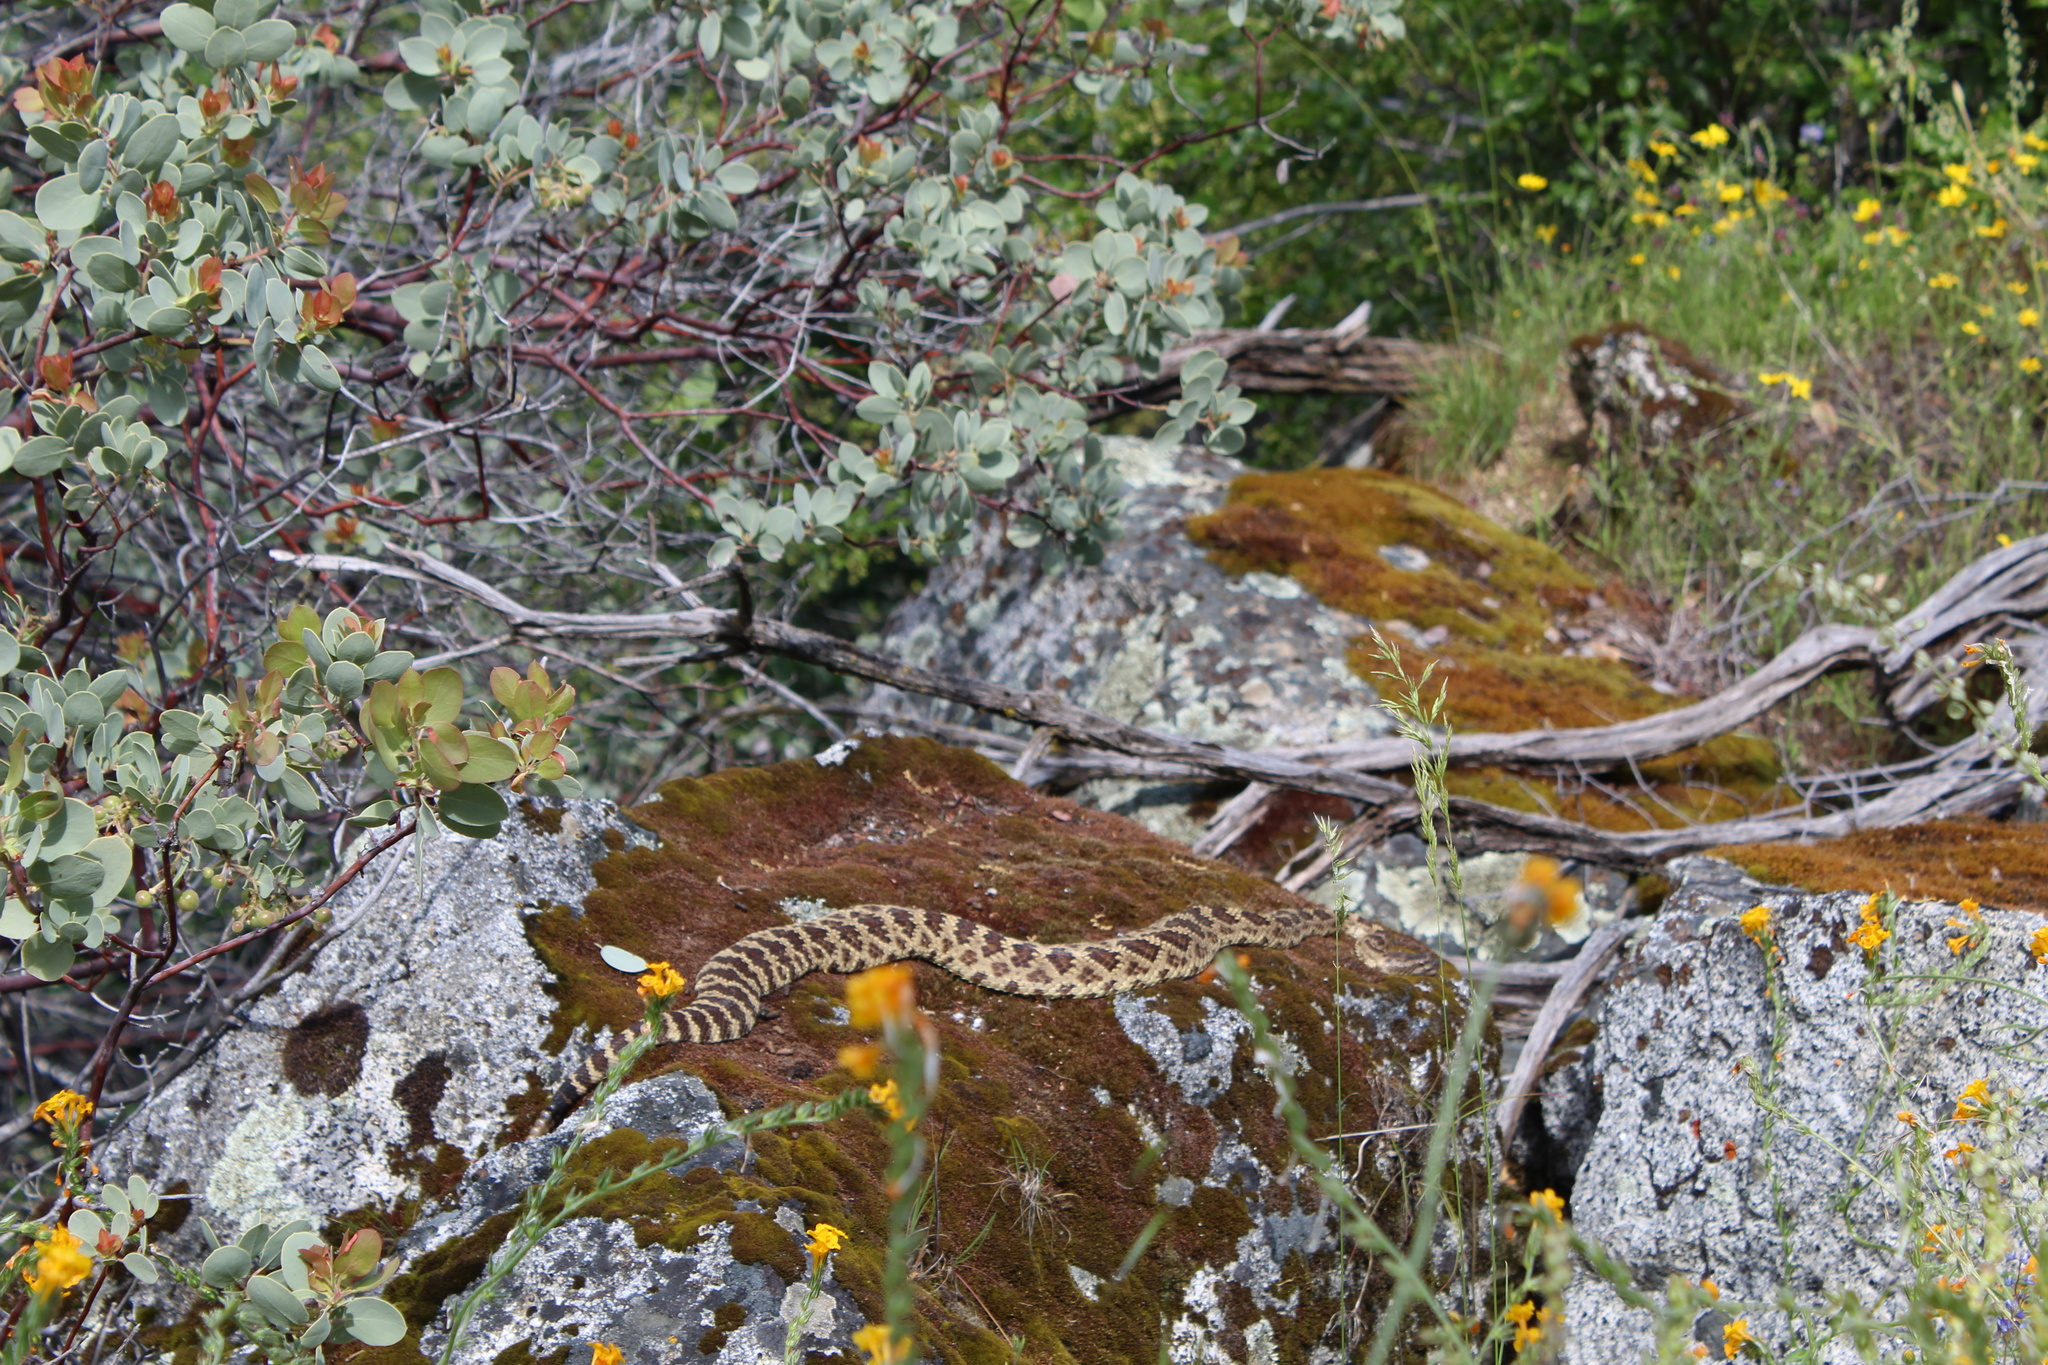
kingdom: Animalia
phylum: Chordata
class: Squamata
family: Viperidae
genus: Crotalus
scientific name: Crotalus oreganus
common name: Abyssus
